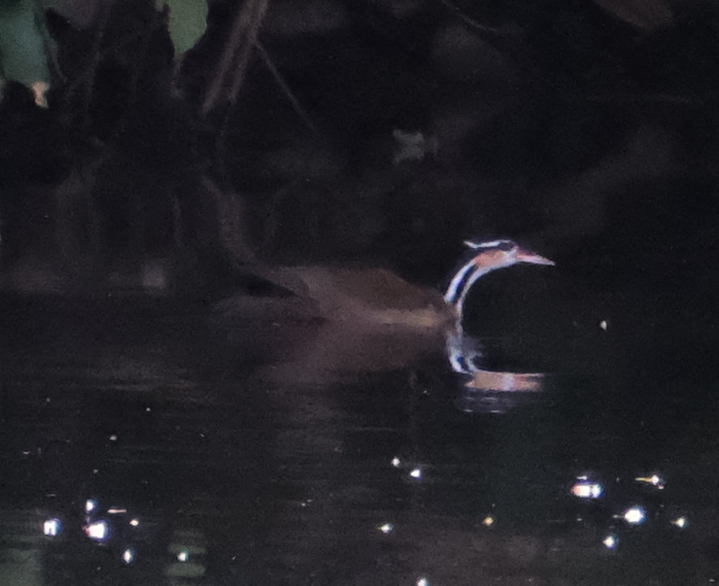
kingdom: Animalia
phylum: Chordata
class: Aves
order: Gruiformes
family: Heliornithidae
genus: Heliornis
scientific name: Heliornis fulica
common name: Sungrebe
